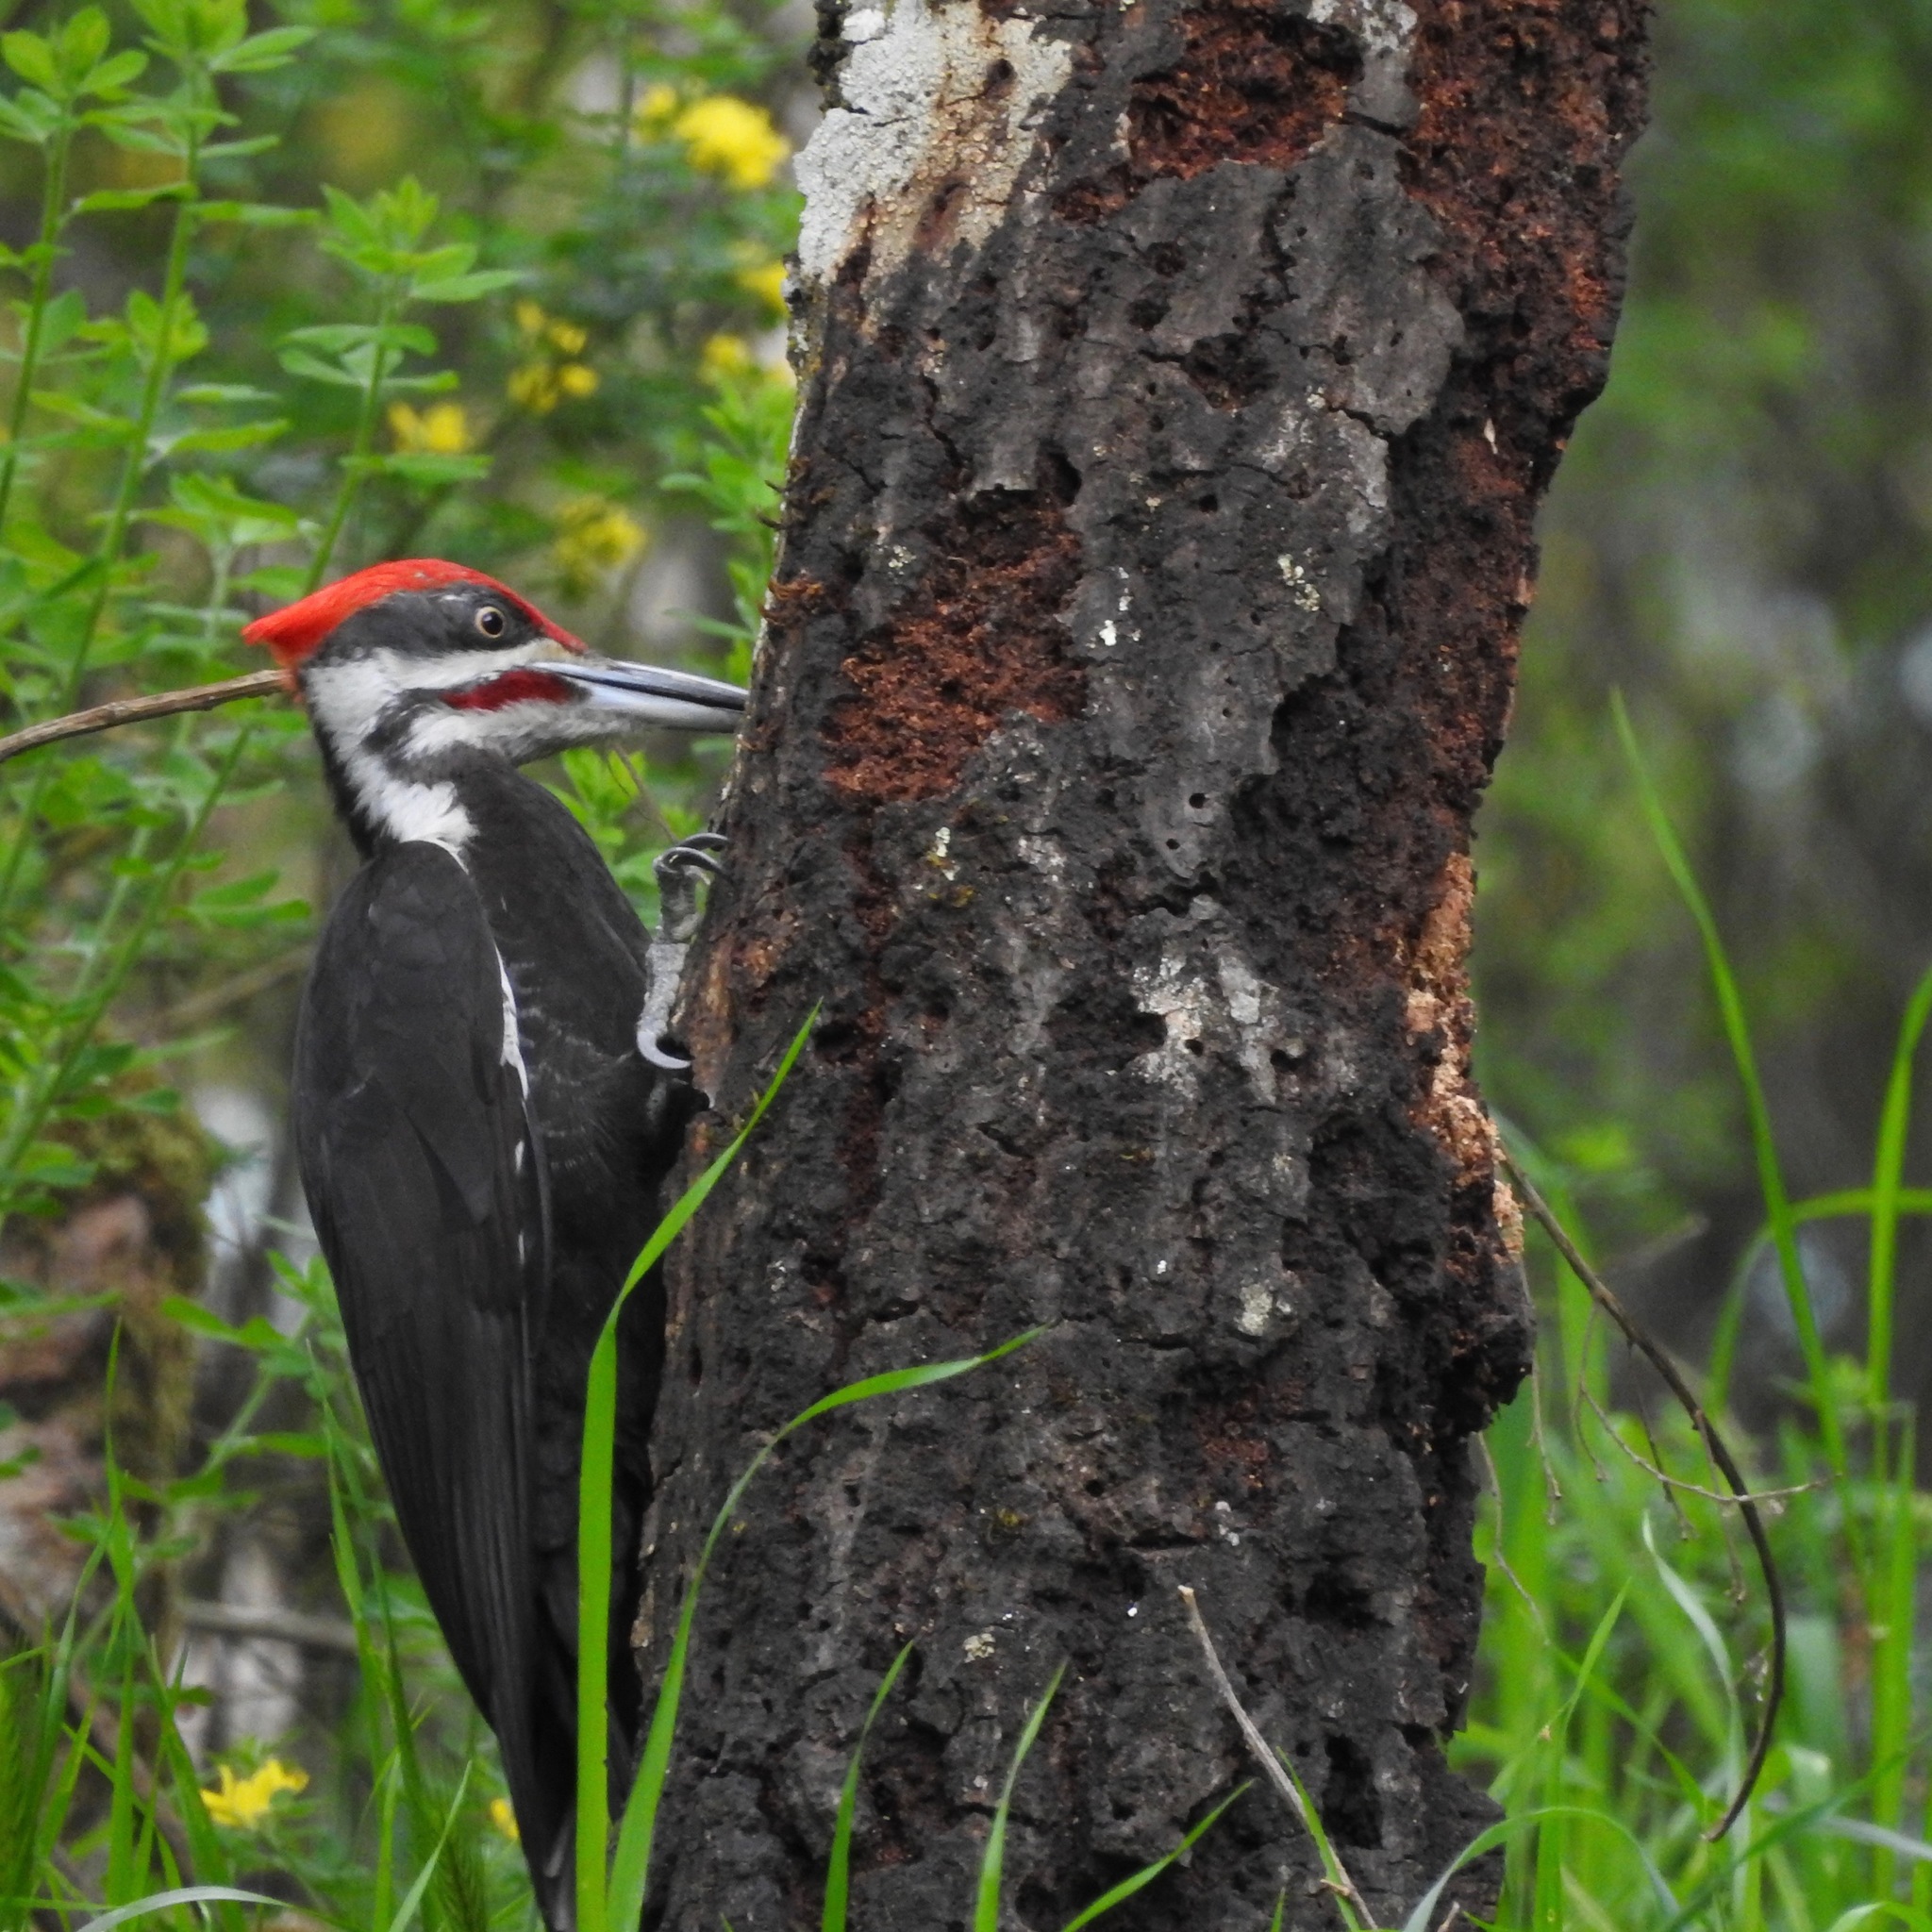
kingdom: Animalia
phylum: Chordata
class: Aves
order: Piciformes
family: Picidae
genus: Dryocopus
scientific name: Dryocopus pileatus
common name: Pileated woodpecker
